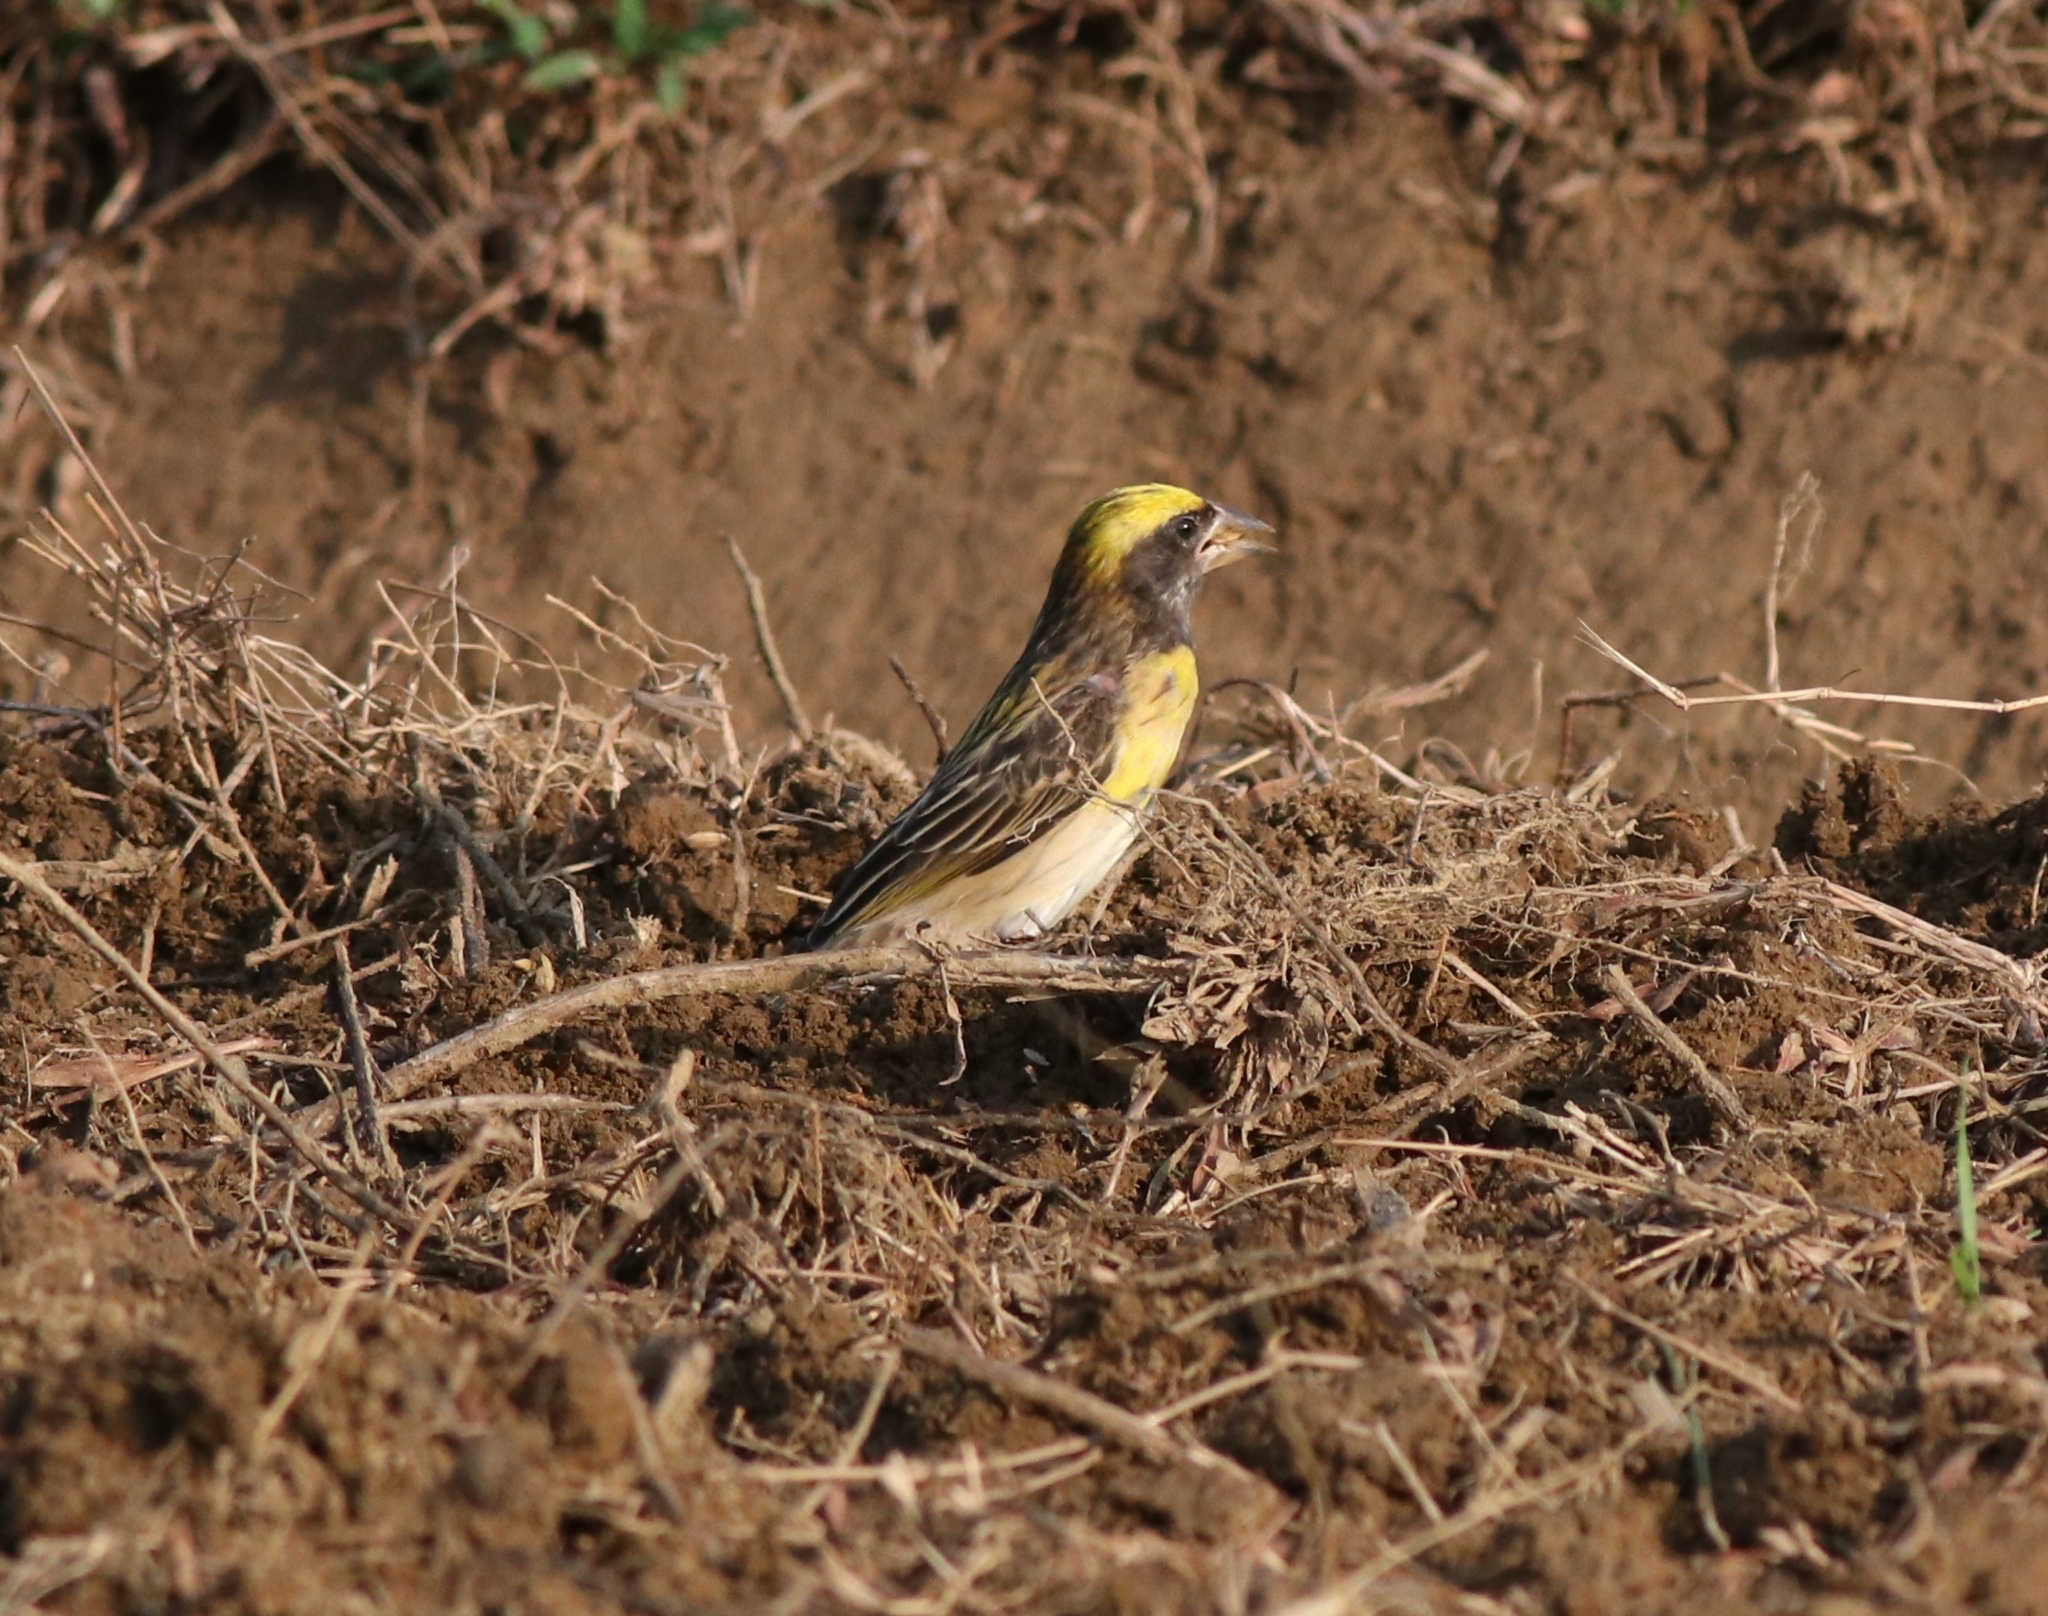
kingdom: Animalia
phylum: Chordata
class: Aves
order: Passeriformes
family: Ploceidae
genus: Ploceus
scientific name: Ploceus philippinus
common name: Baya weaver
